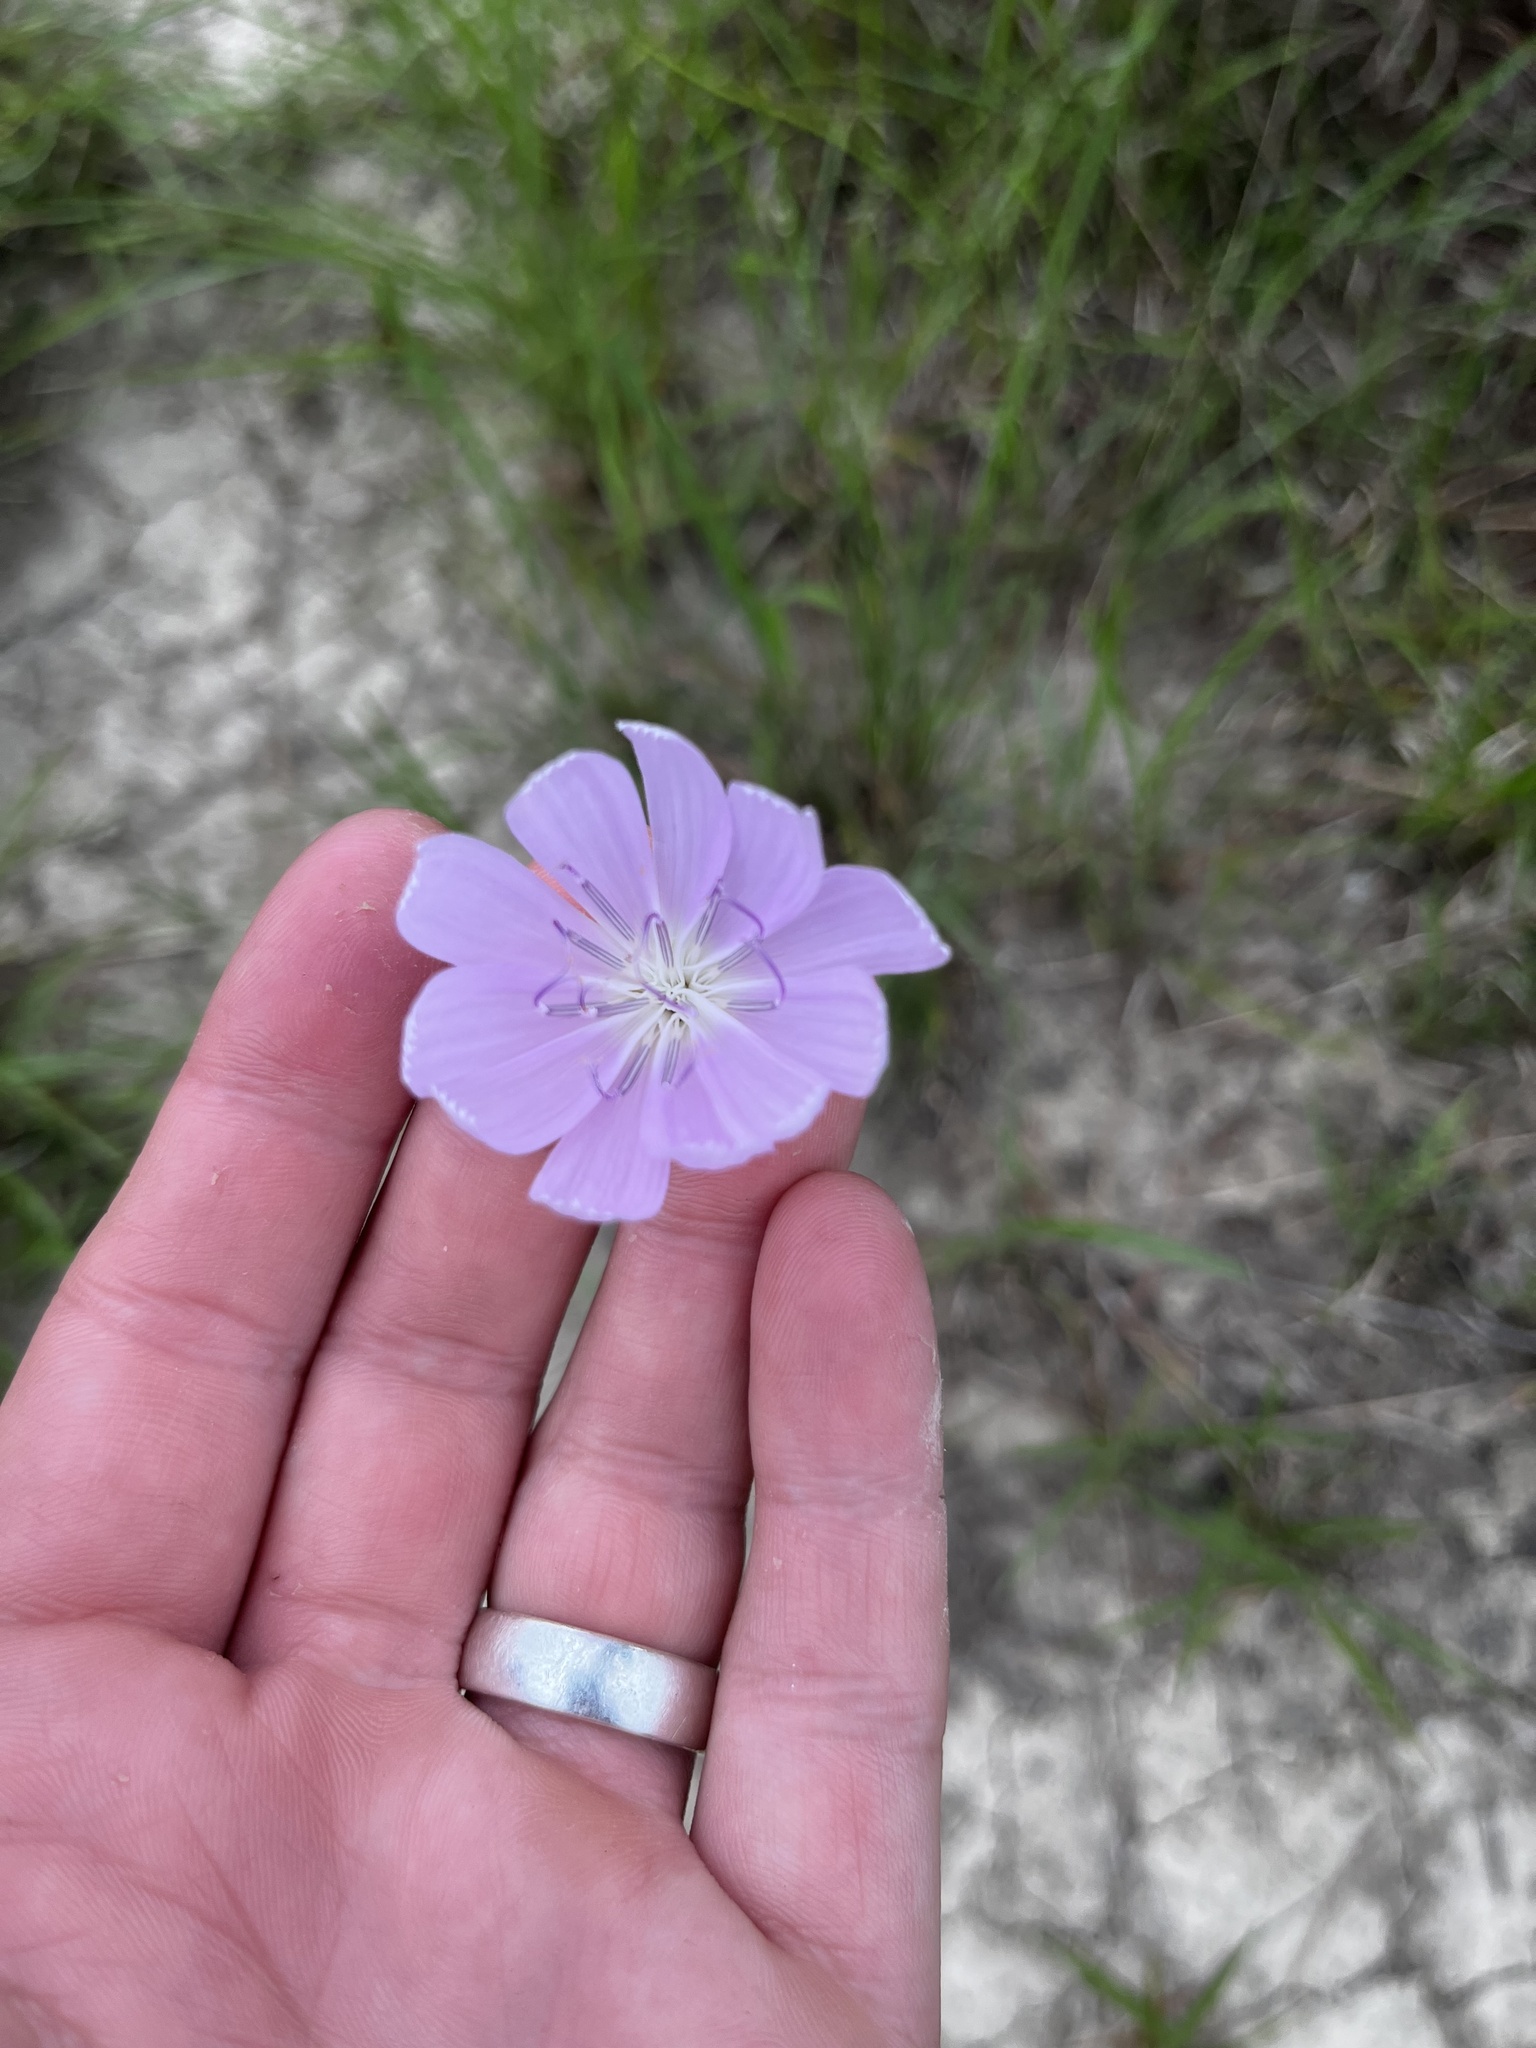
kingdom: Plantae
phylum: Tracheophyta
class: Magnoliopsida
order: Asterales
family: Asteraceae
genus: Lygodesmia
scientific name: Lygodesmia texana
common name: Texas skeleton-plant
